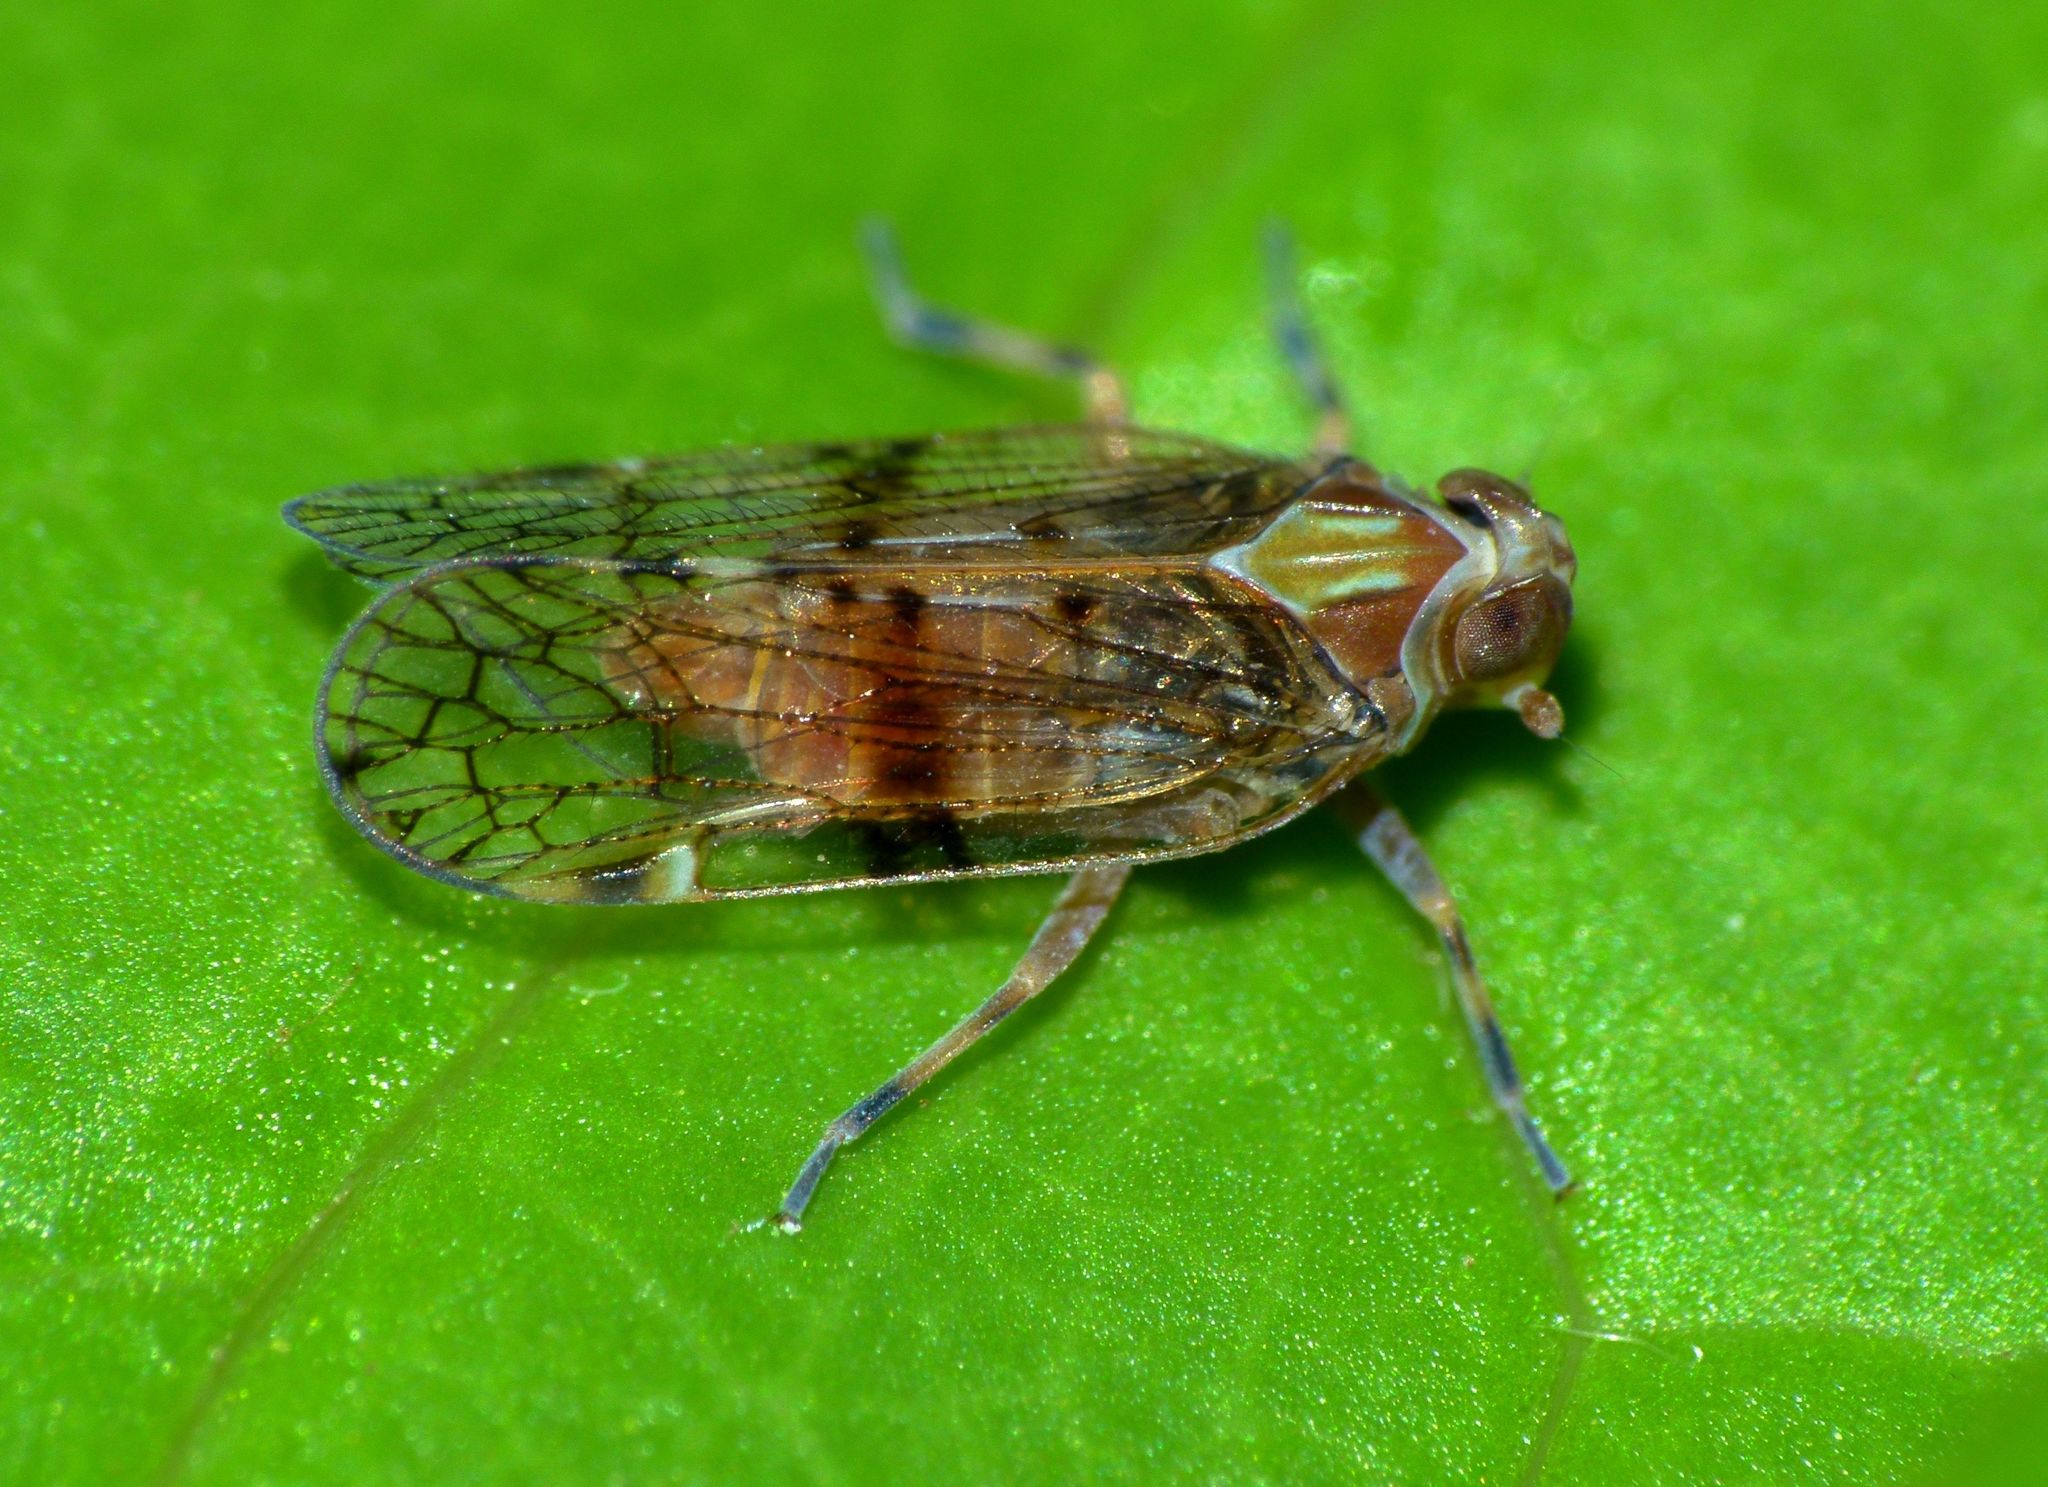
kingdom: Animalia
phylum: Arthropoda
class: Insecta
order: Hemiptera
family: Cixiidae
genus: Koroana
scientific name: Koroana lanceloti
